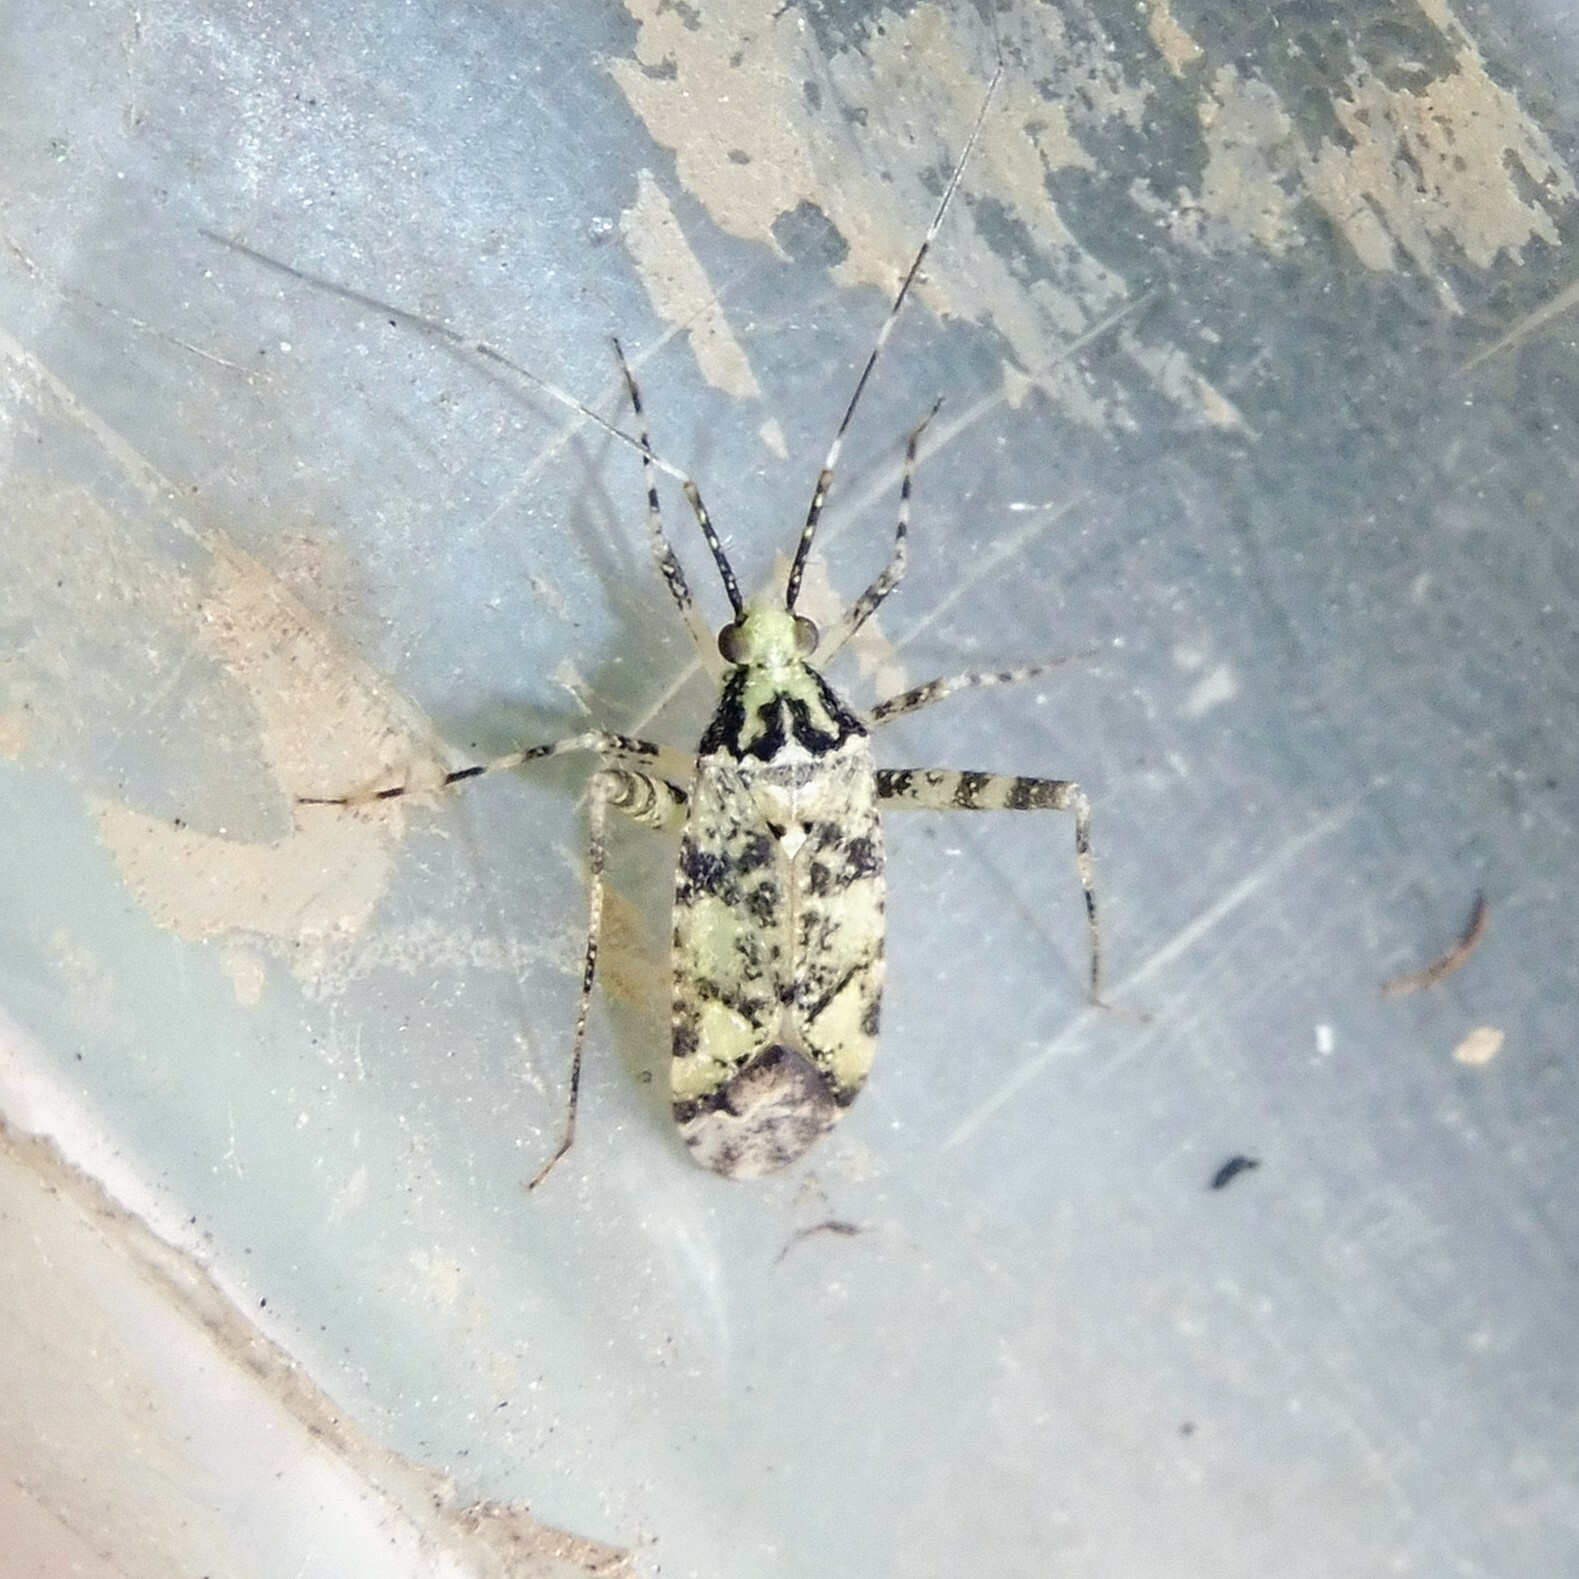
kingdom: Animalia
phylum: Arthropoda
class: Insecta
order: Hemiptera
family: Miridae
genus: Phytocoris
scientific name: Phytocoris tiliae
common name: Plant bug
